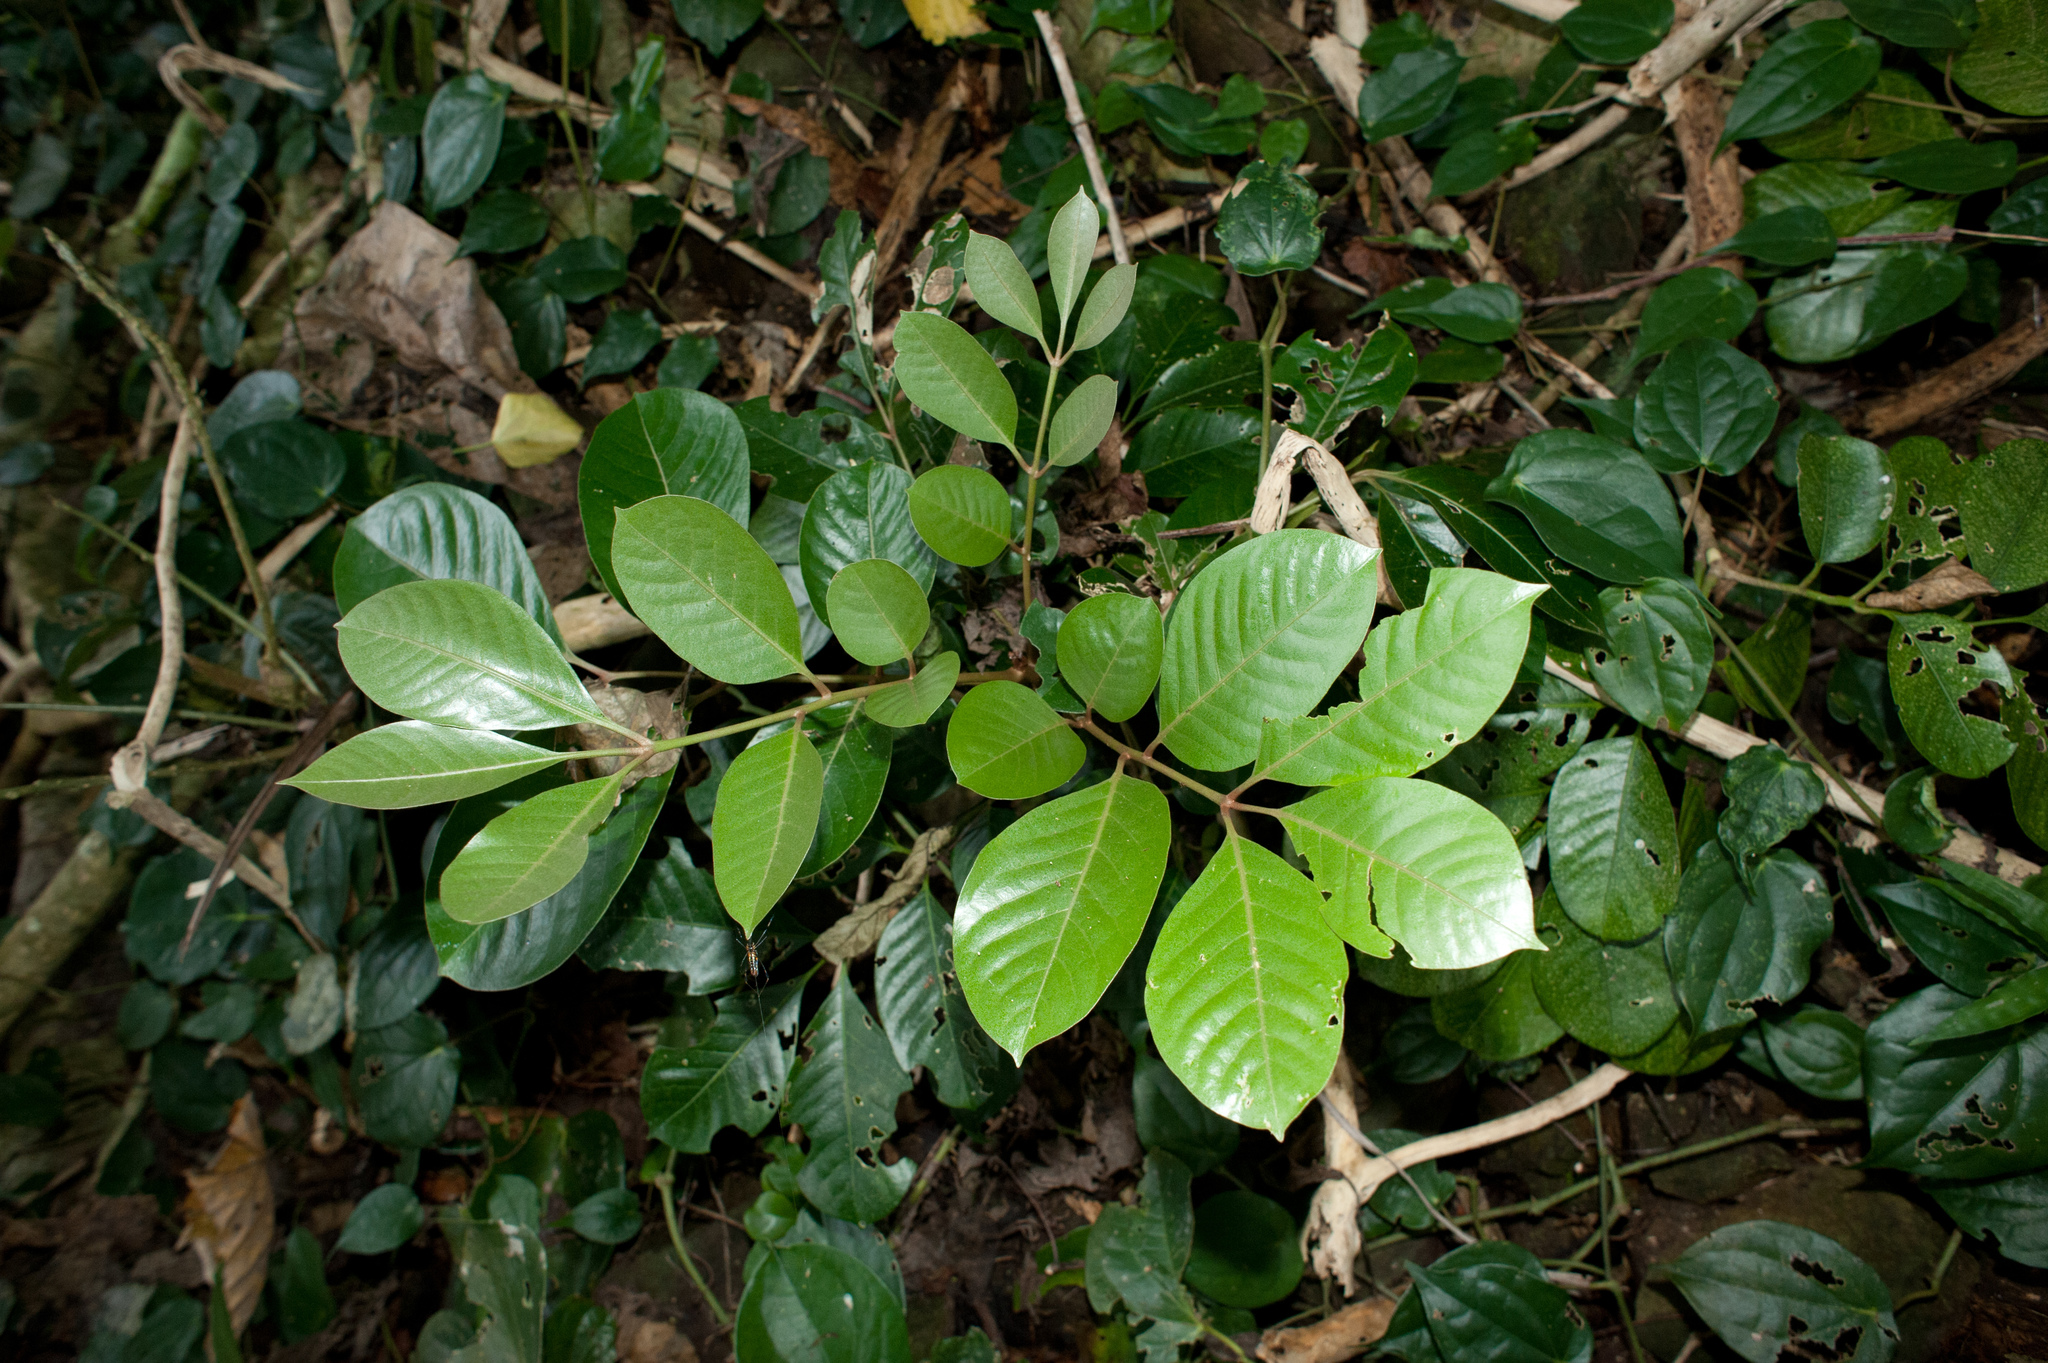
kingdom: Plantae
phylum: Tracheophyta
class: Magnoliopsida
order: Sapindales
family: Meliaceae
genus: Aglaia
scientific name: Aglaia rimosa
